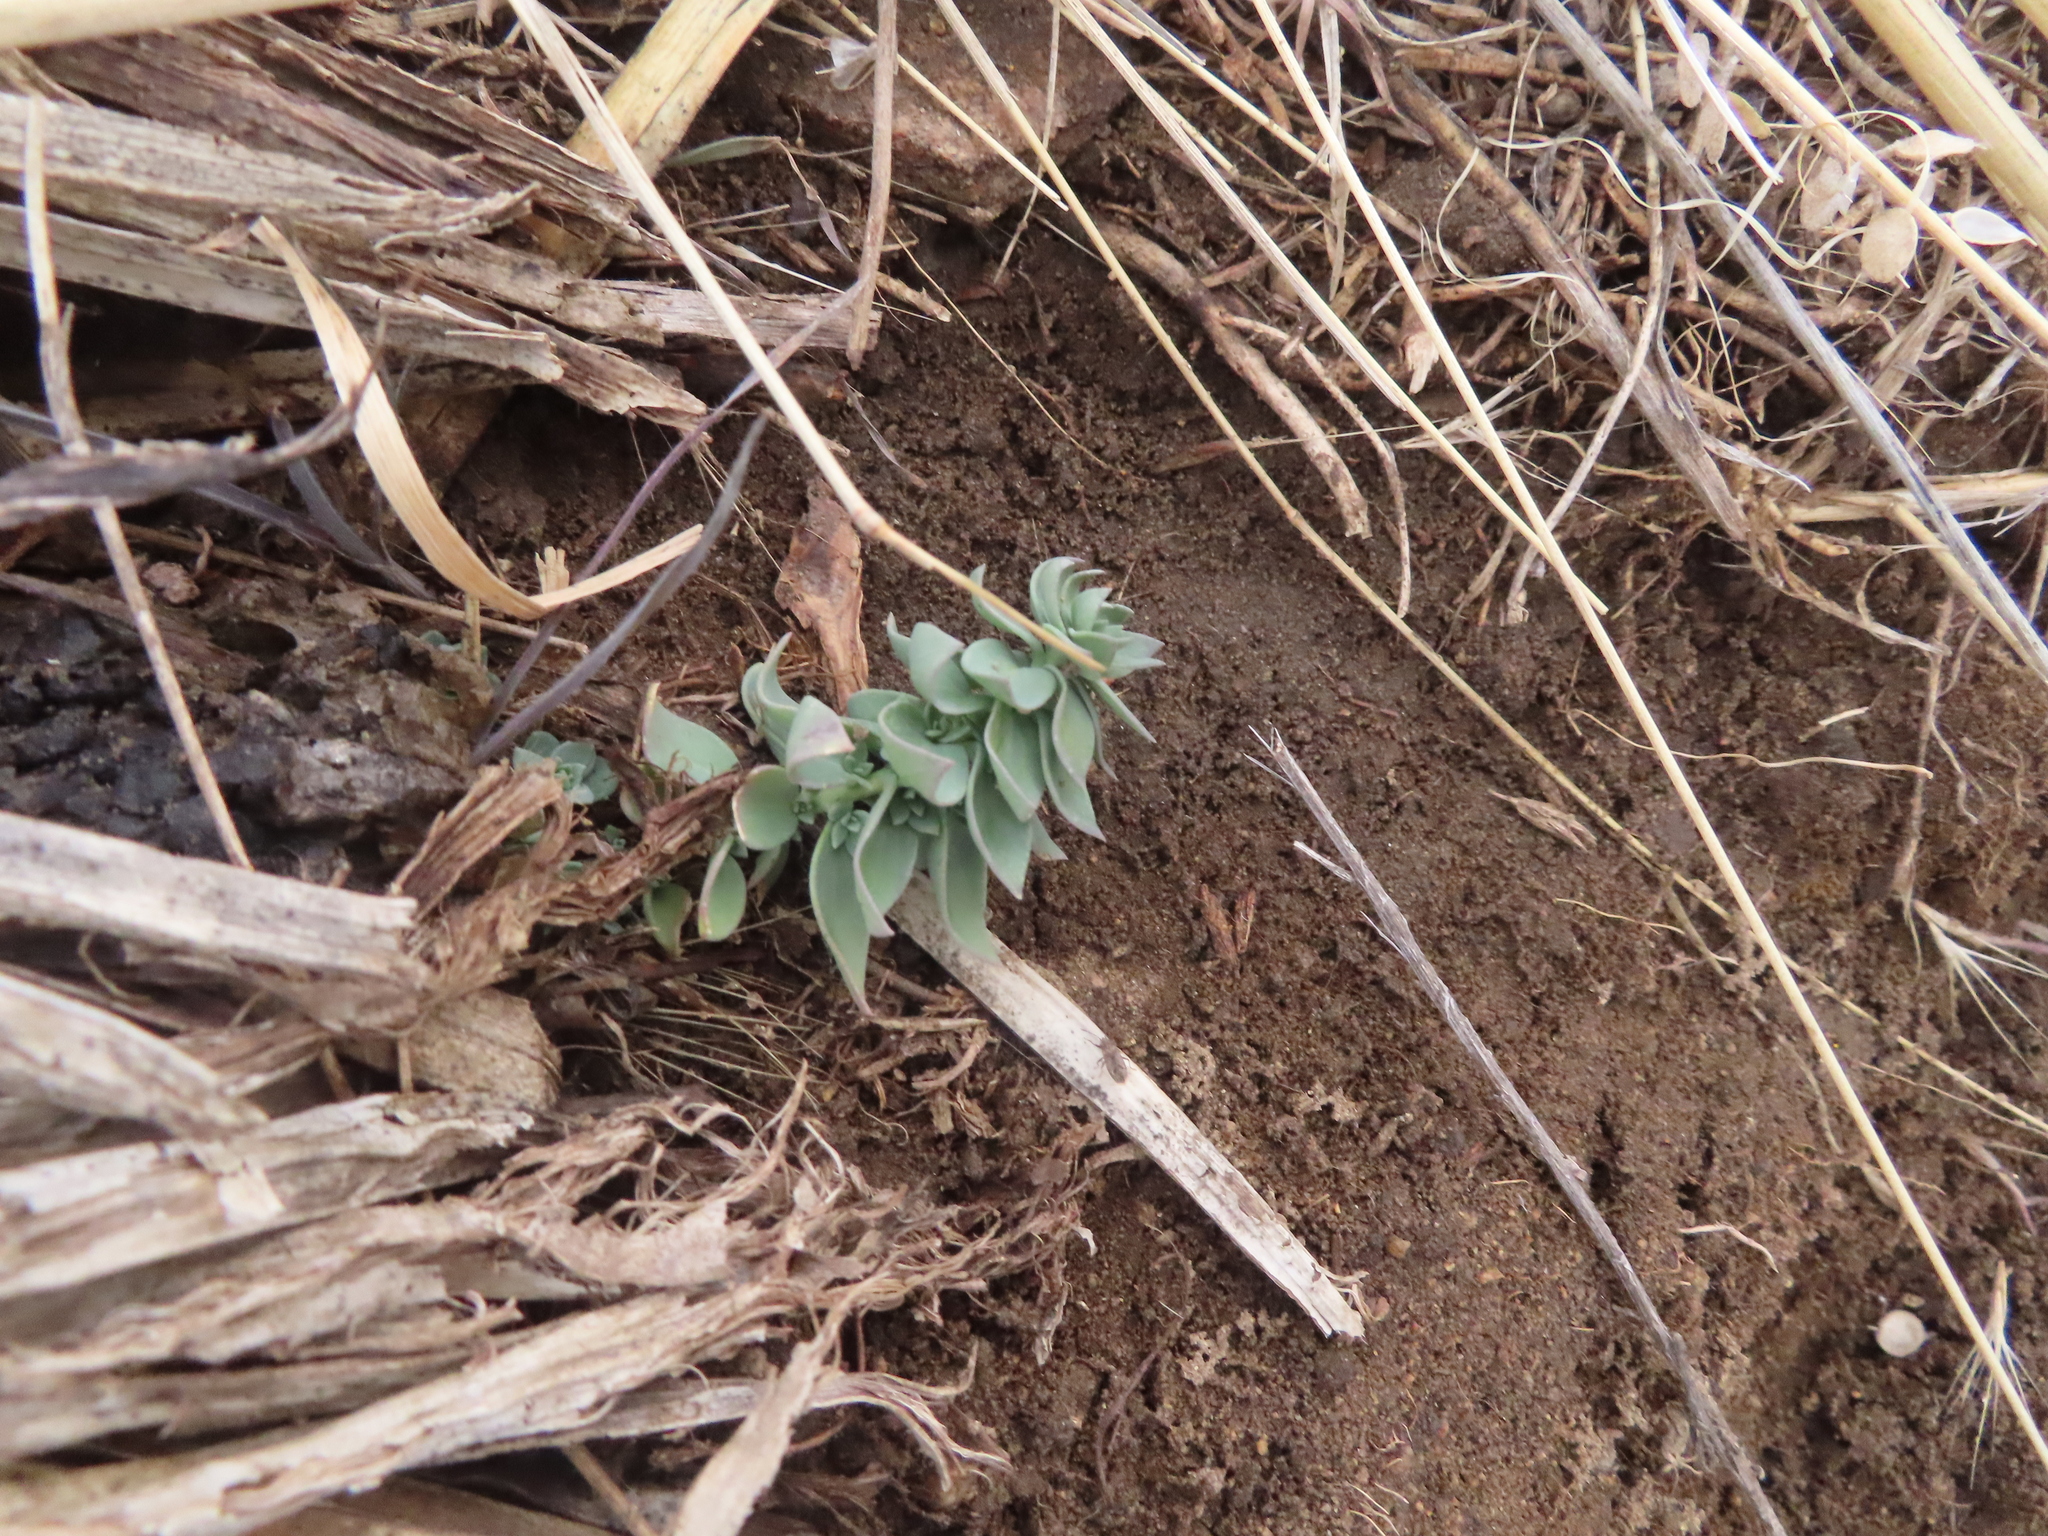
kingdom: Plantae
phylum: Tracheophyta
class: Magnoliopsida
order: Lamiales
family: Plantaginaceae
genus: Linaria
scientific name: Linaria dalmatica
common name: Dalmatian toadflax
